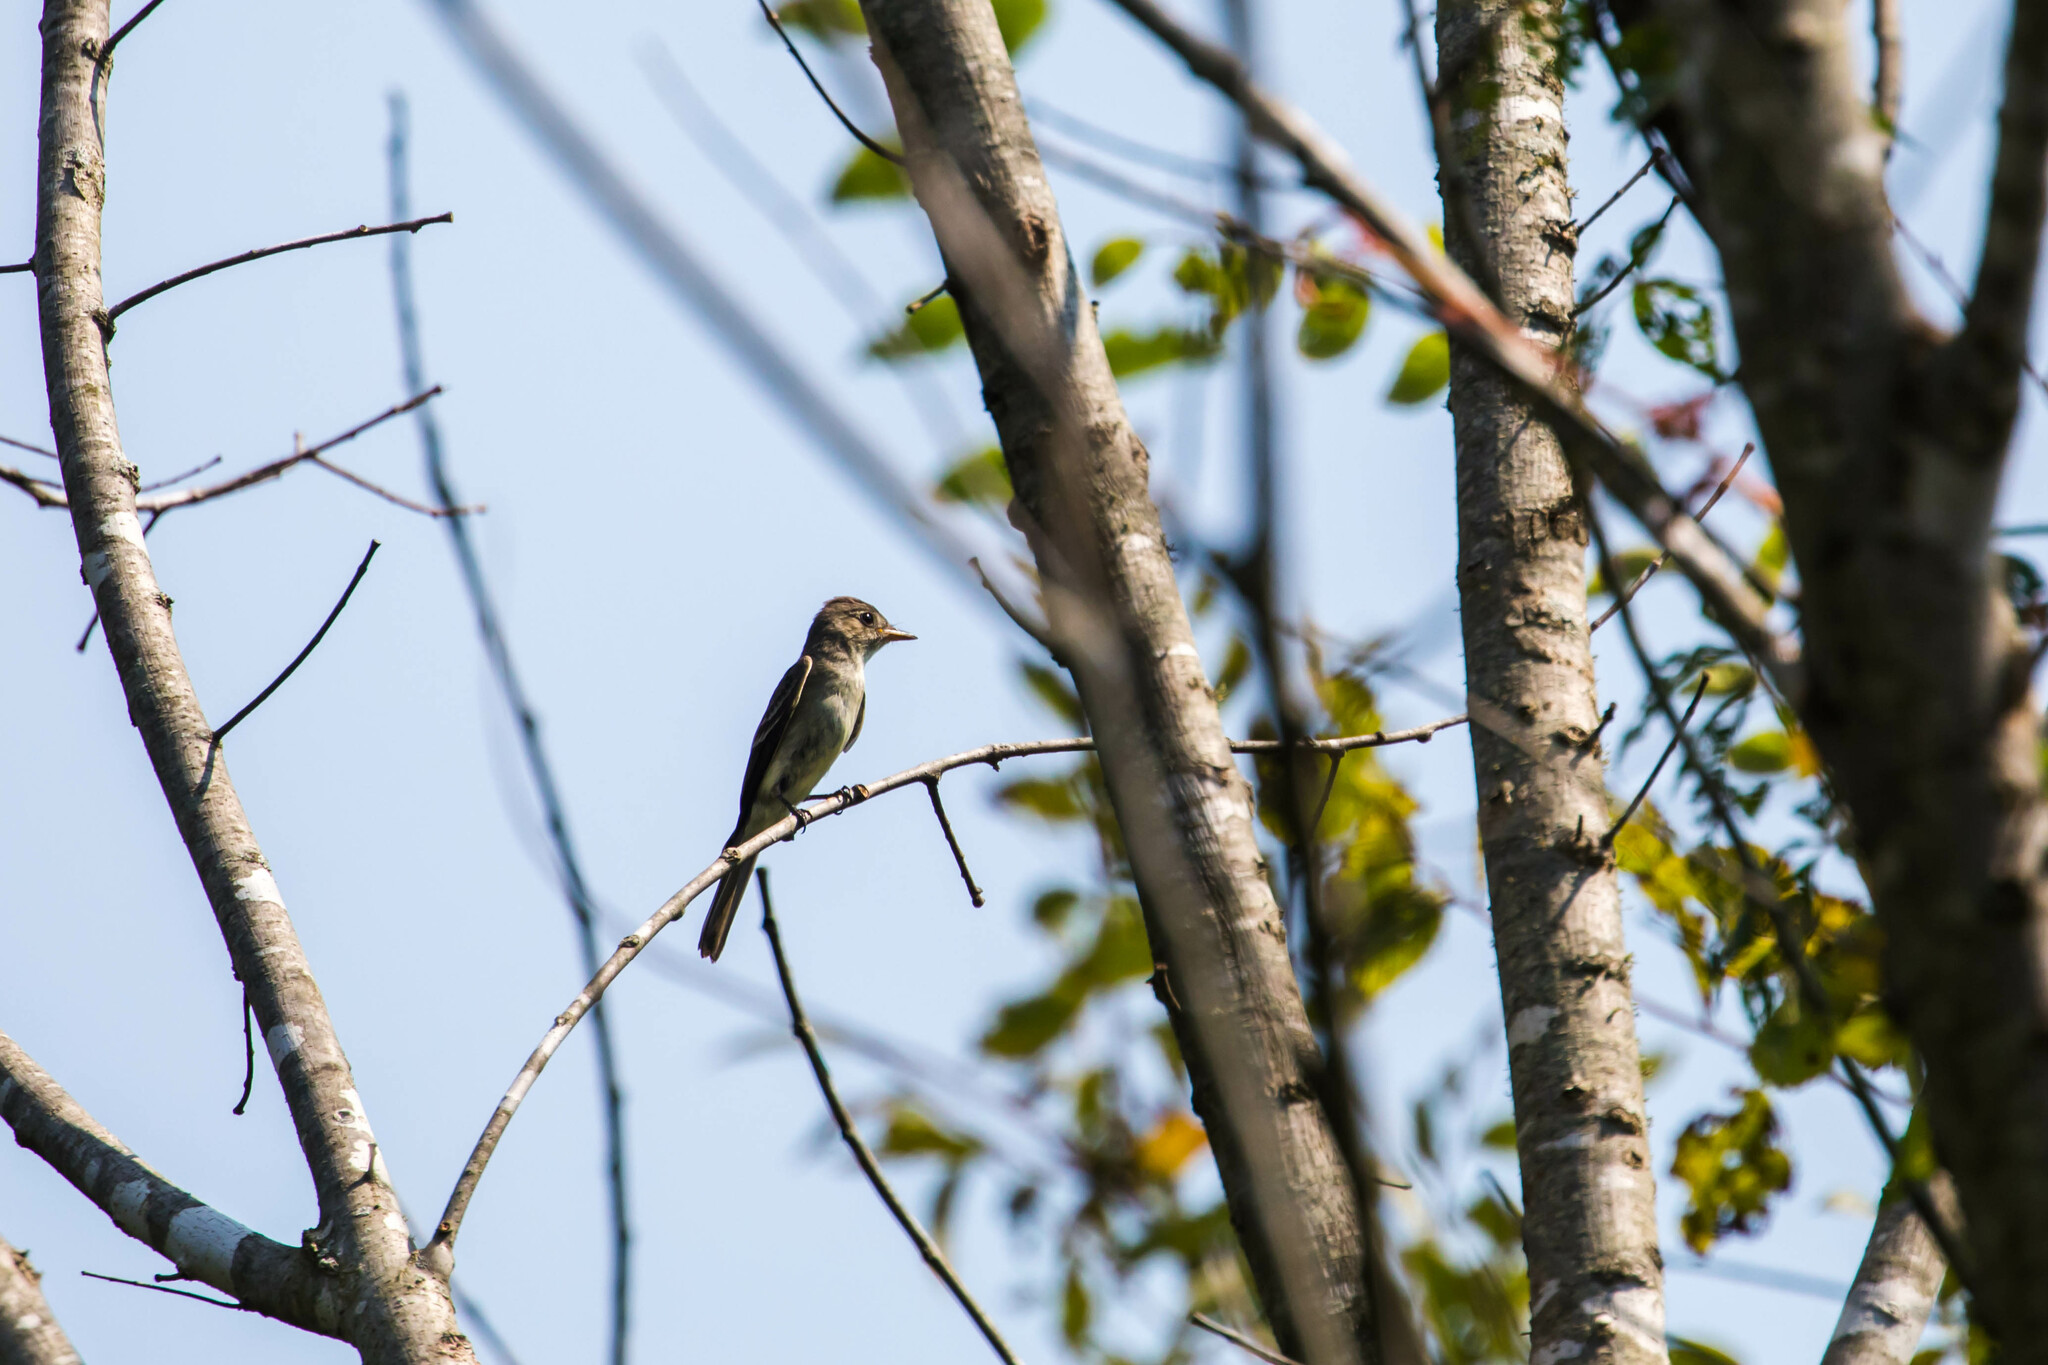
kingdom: Animalia
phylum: Chordata
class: Aves
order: Passeriformes
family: Tyrannidae
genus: Contopus
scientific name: Contopus virens
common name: Eastern wood-pewee
